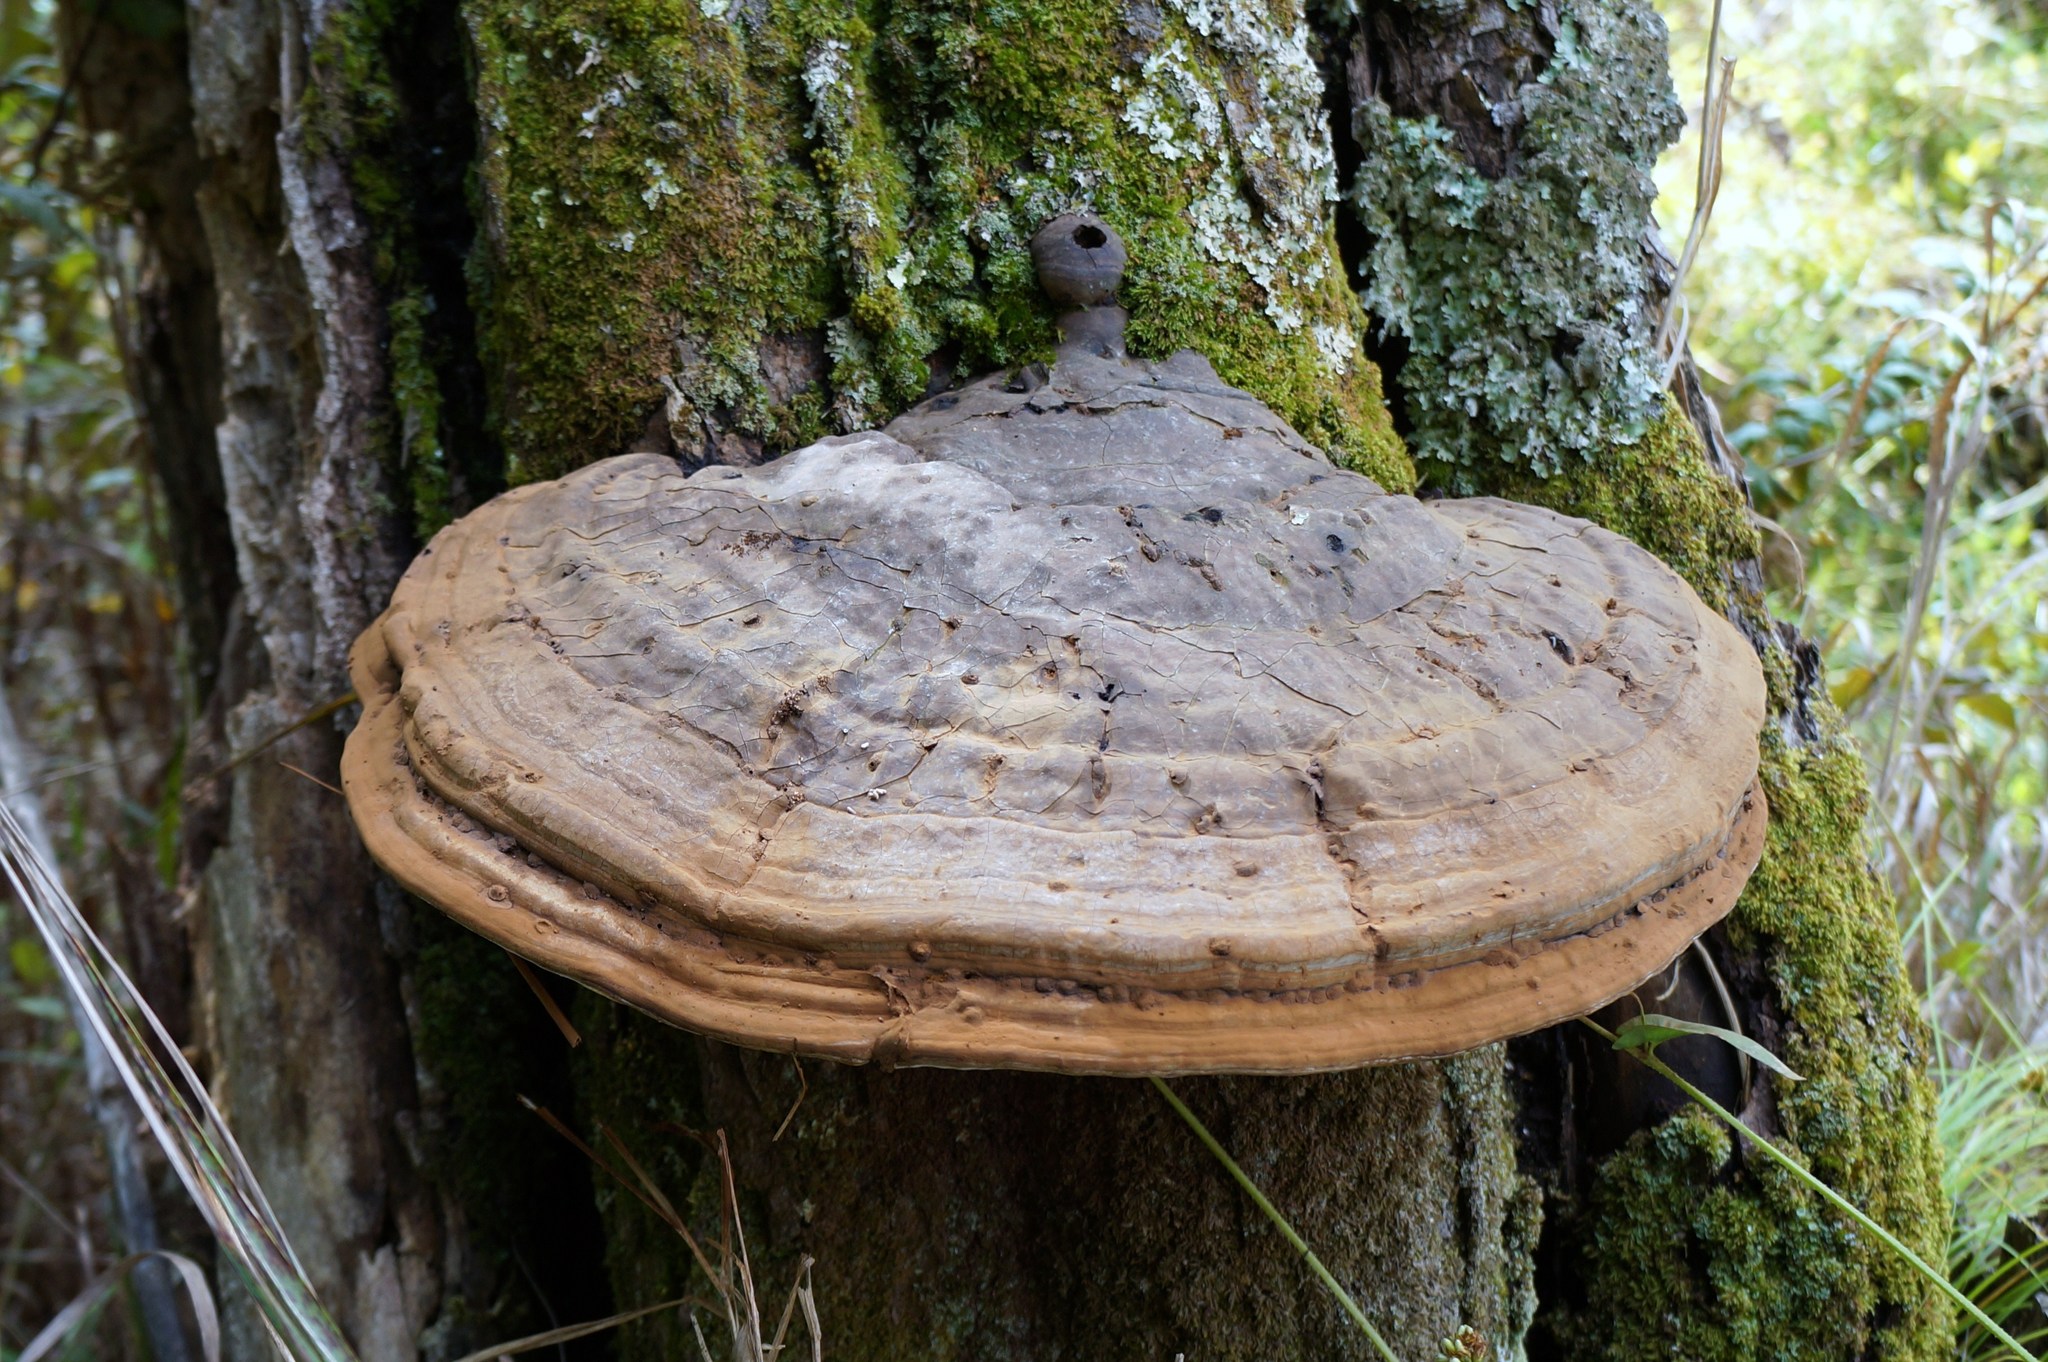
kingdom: Fungi
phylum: Basidiomycota
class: Agaricomycetes
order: Polyporales
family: Polyporaceae
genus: Ganoderma
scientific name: Ganoderma applanatum
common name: Artist's bracket
